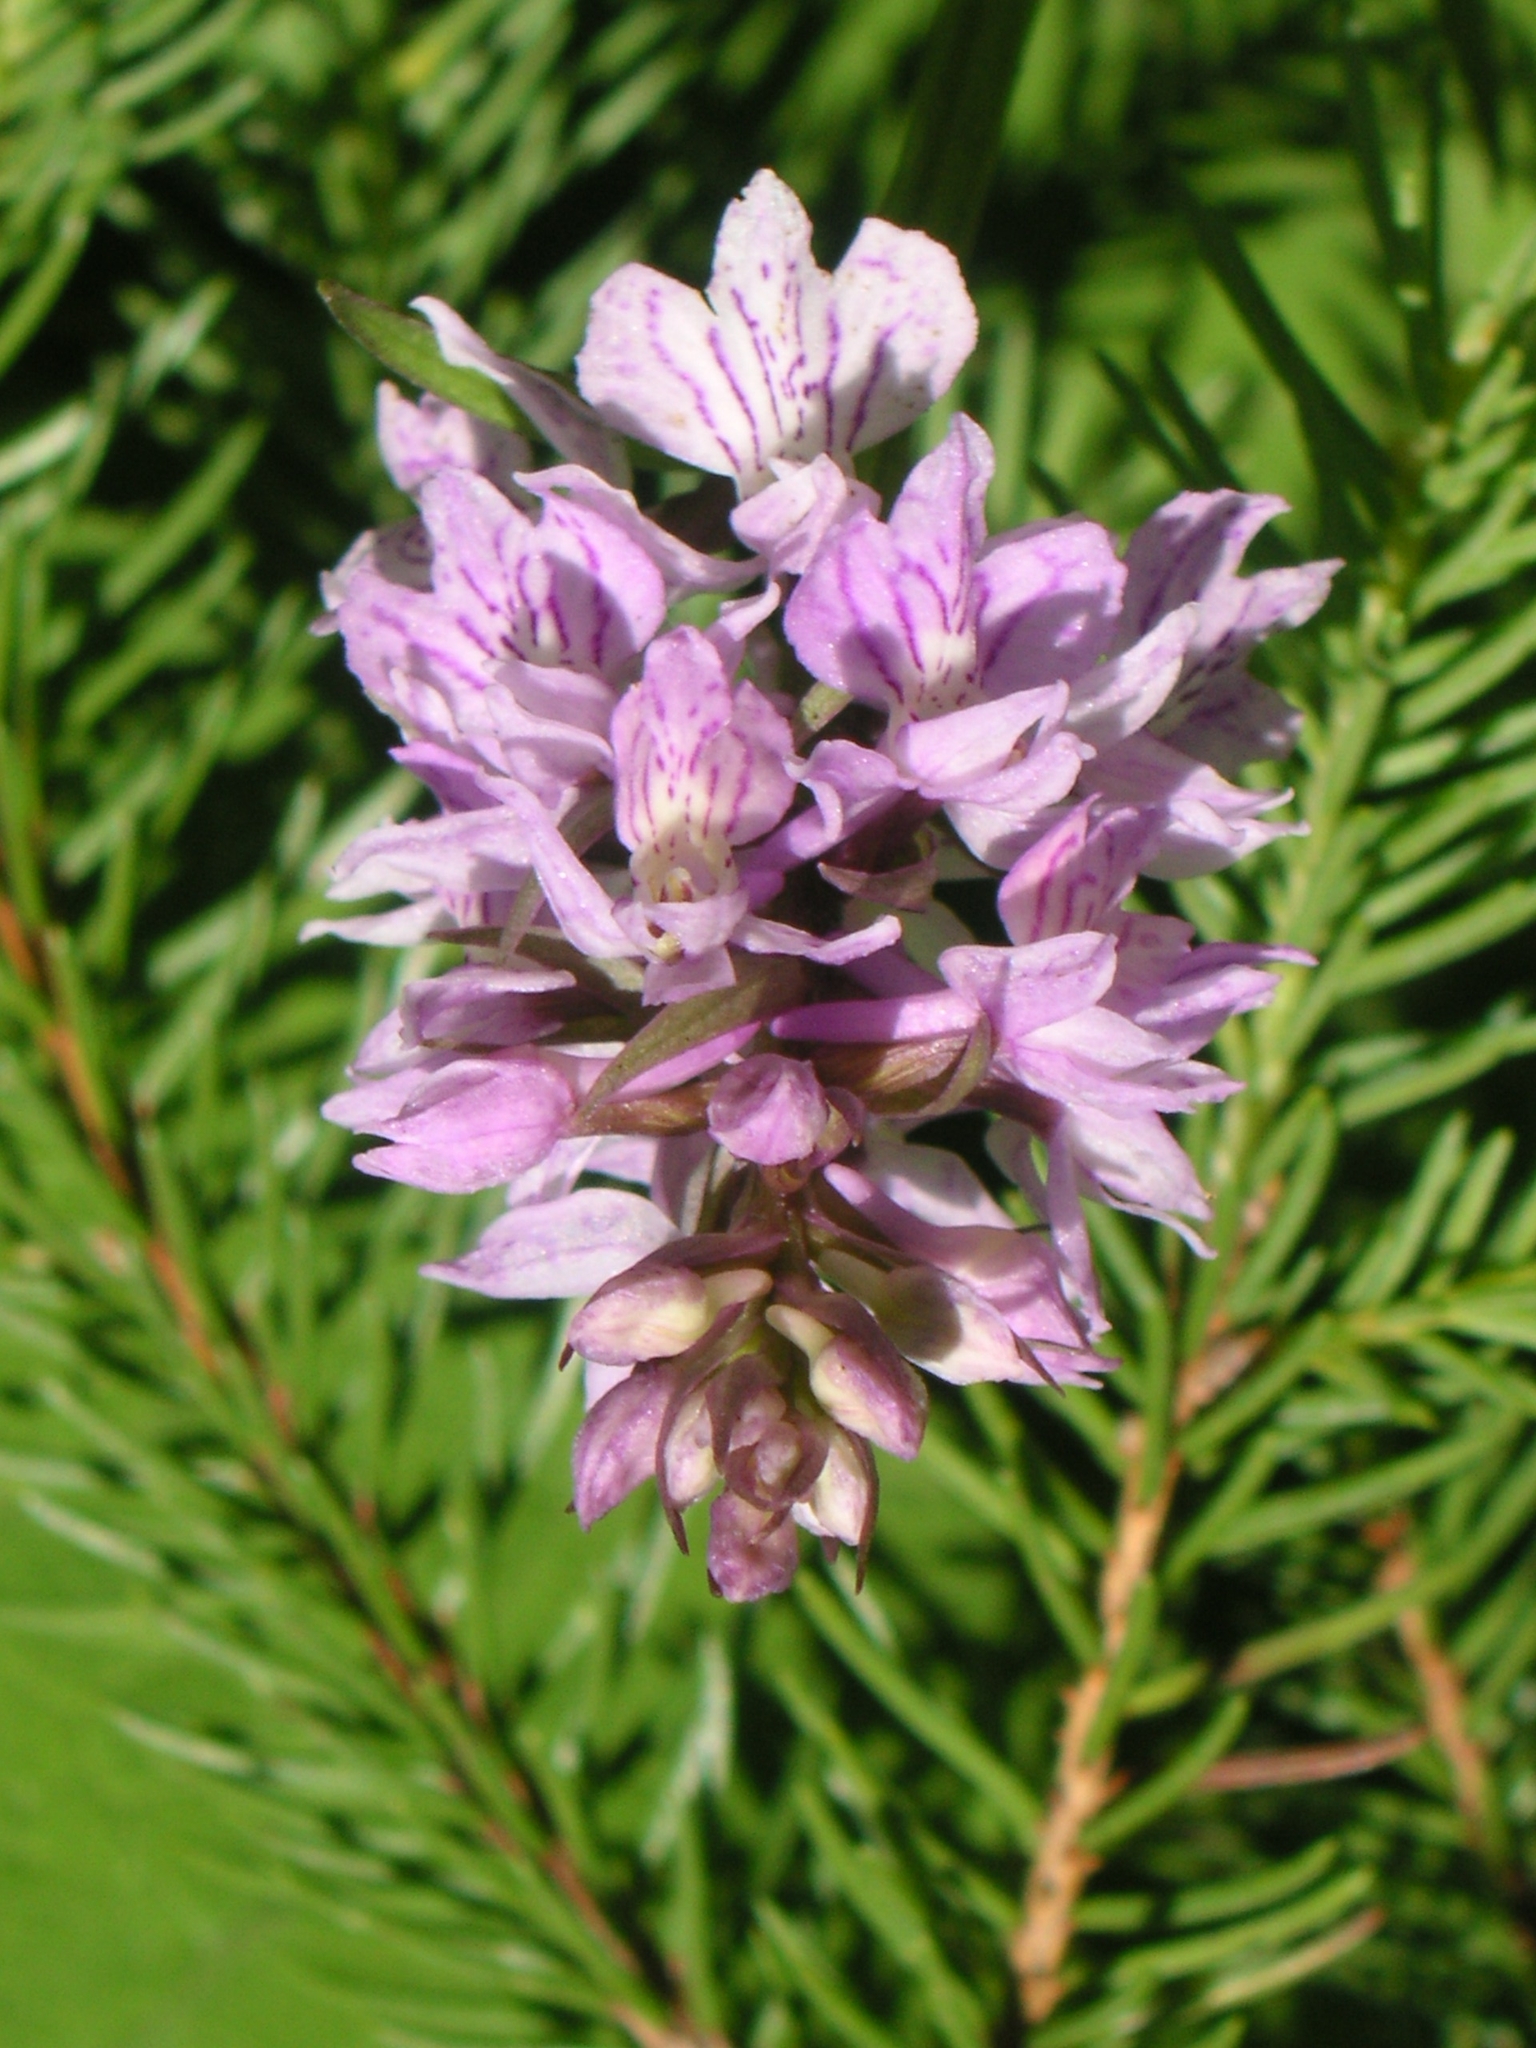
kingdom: Plantae
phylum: Tracheophyta
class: Liliopsida
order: Asparagales
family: Orchidaceae
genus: Dactylorhiza
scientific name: Dactylorhiza maculata
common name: Heath spotted-orchid
